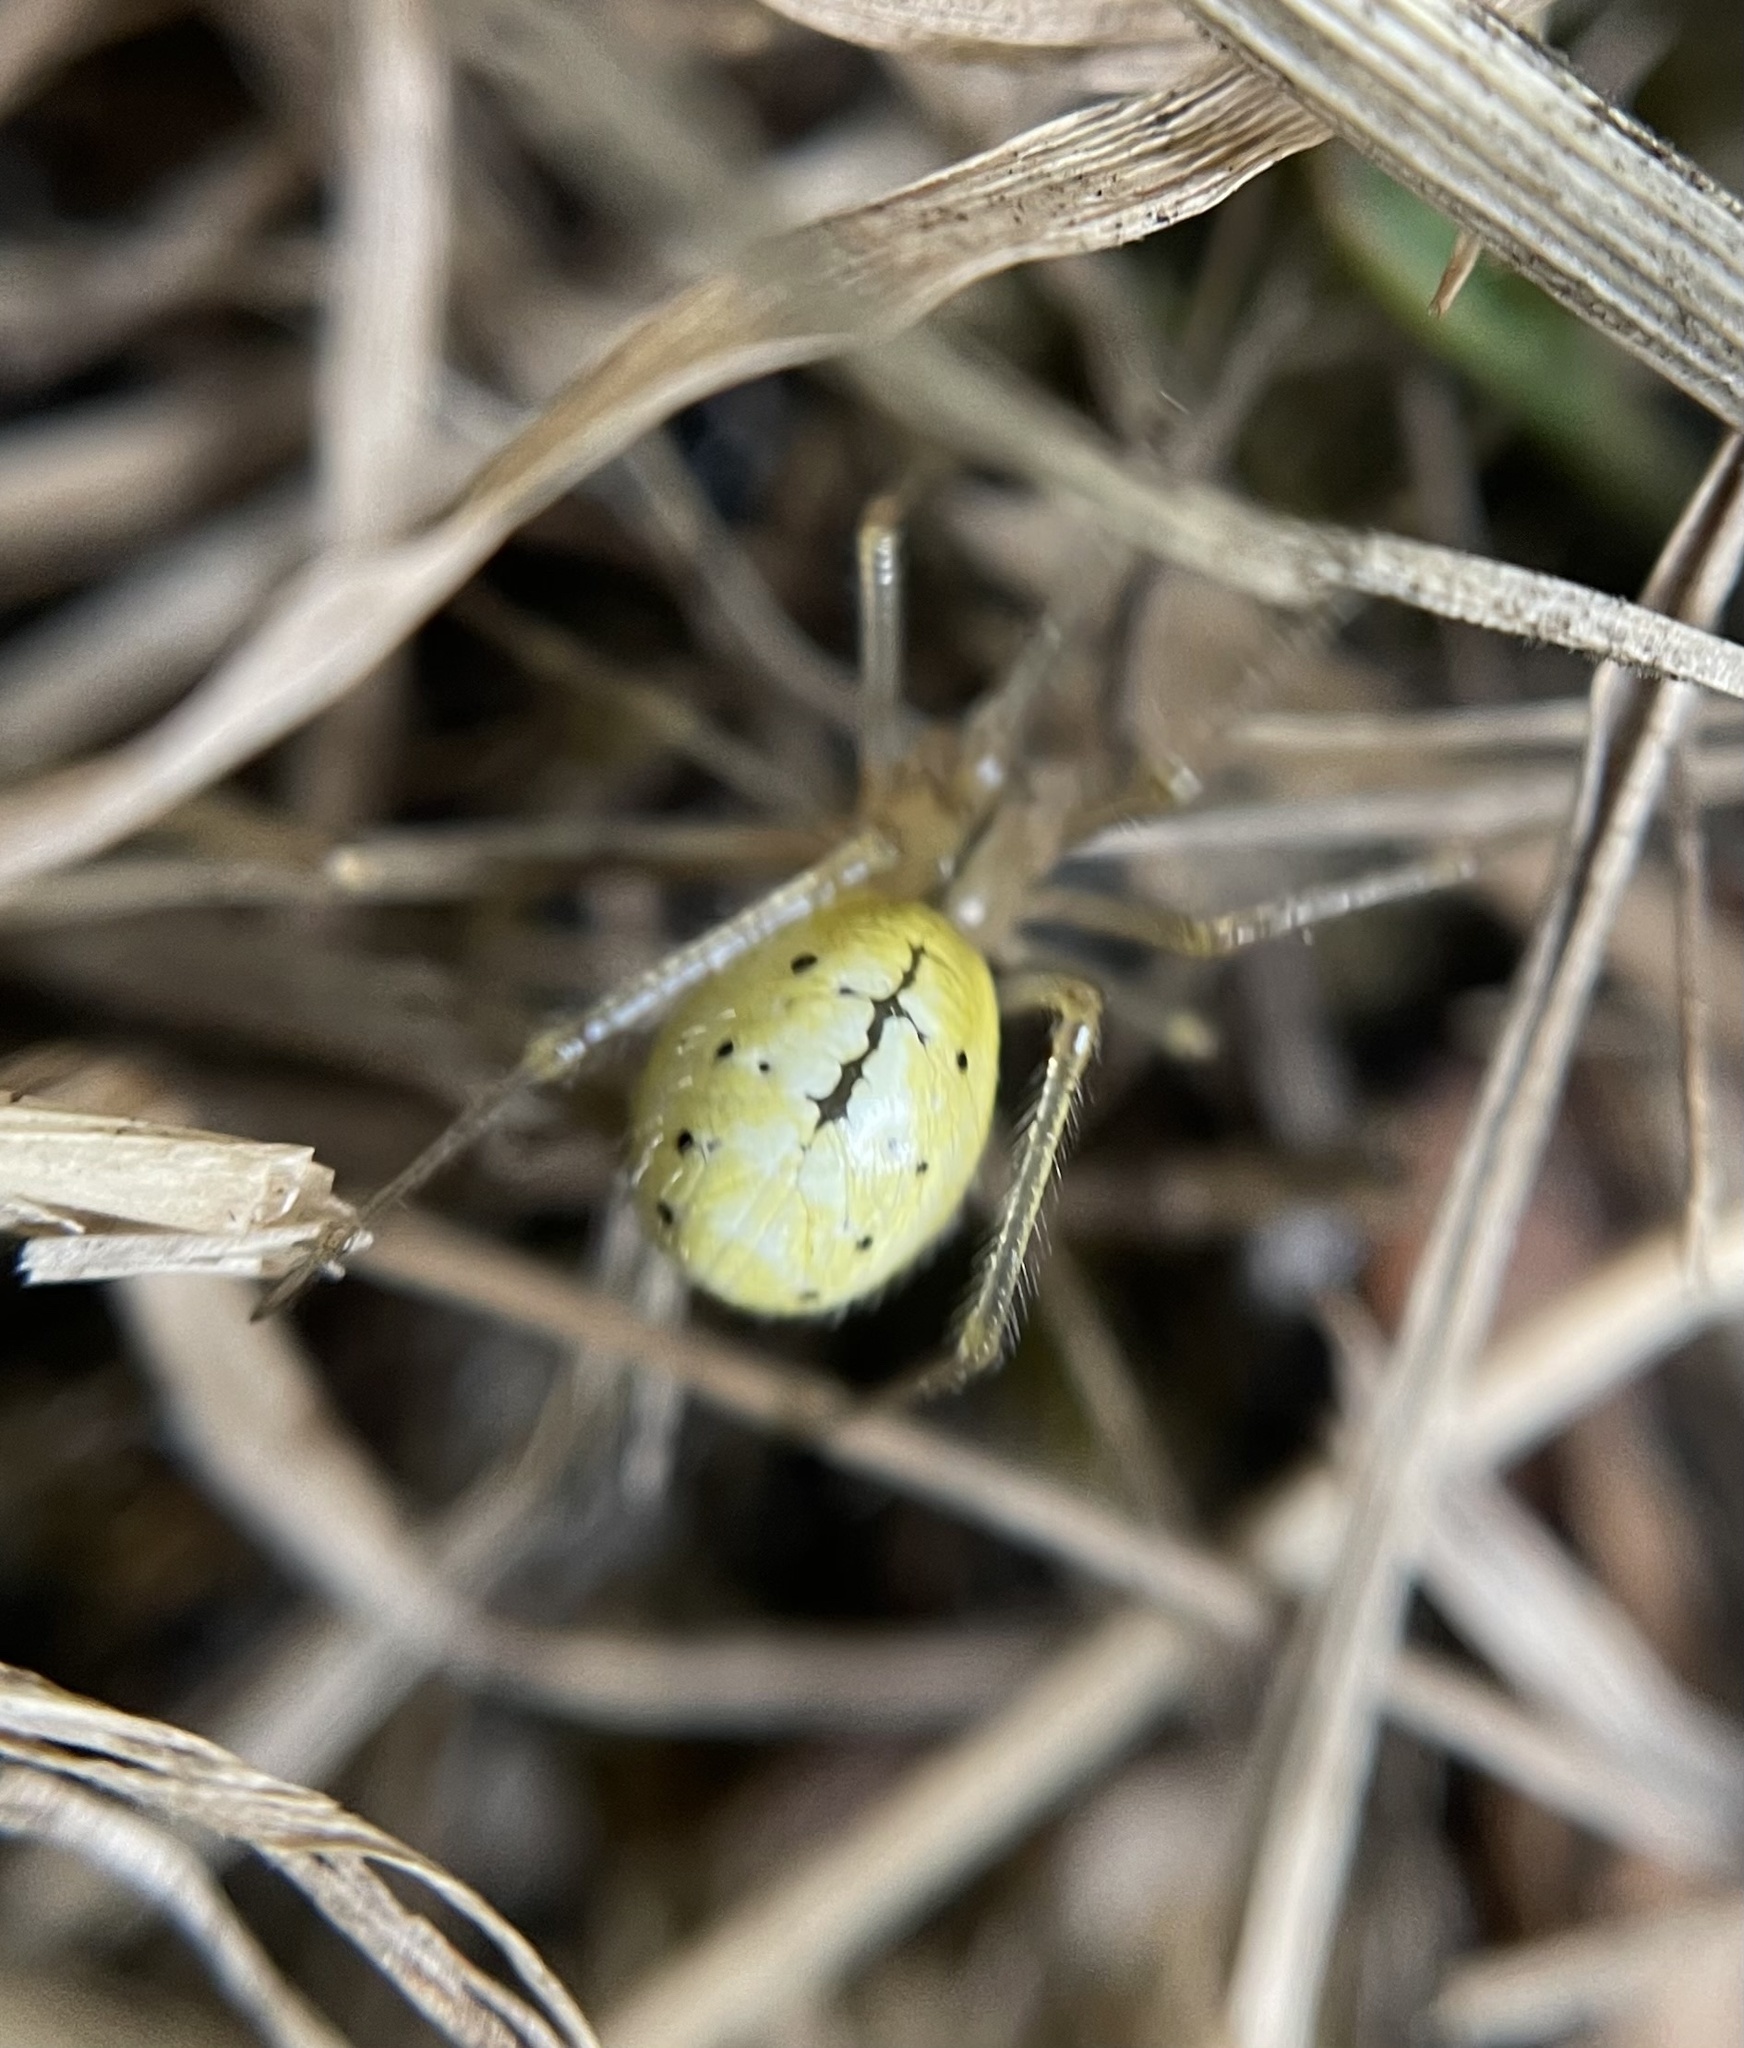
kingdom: Animalia
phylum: Arthropoda
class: Arachnida
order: Araneae
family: Theridiidae
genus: Enoplognatha
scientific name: Enoplognatha ovata
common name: Common candy-striped spider
